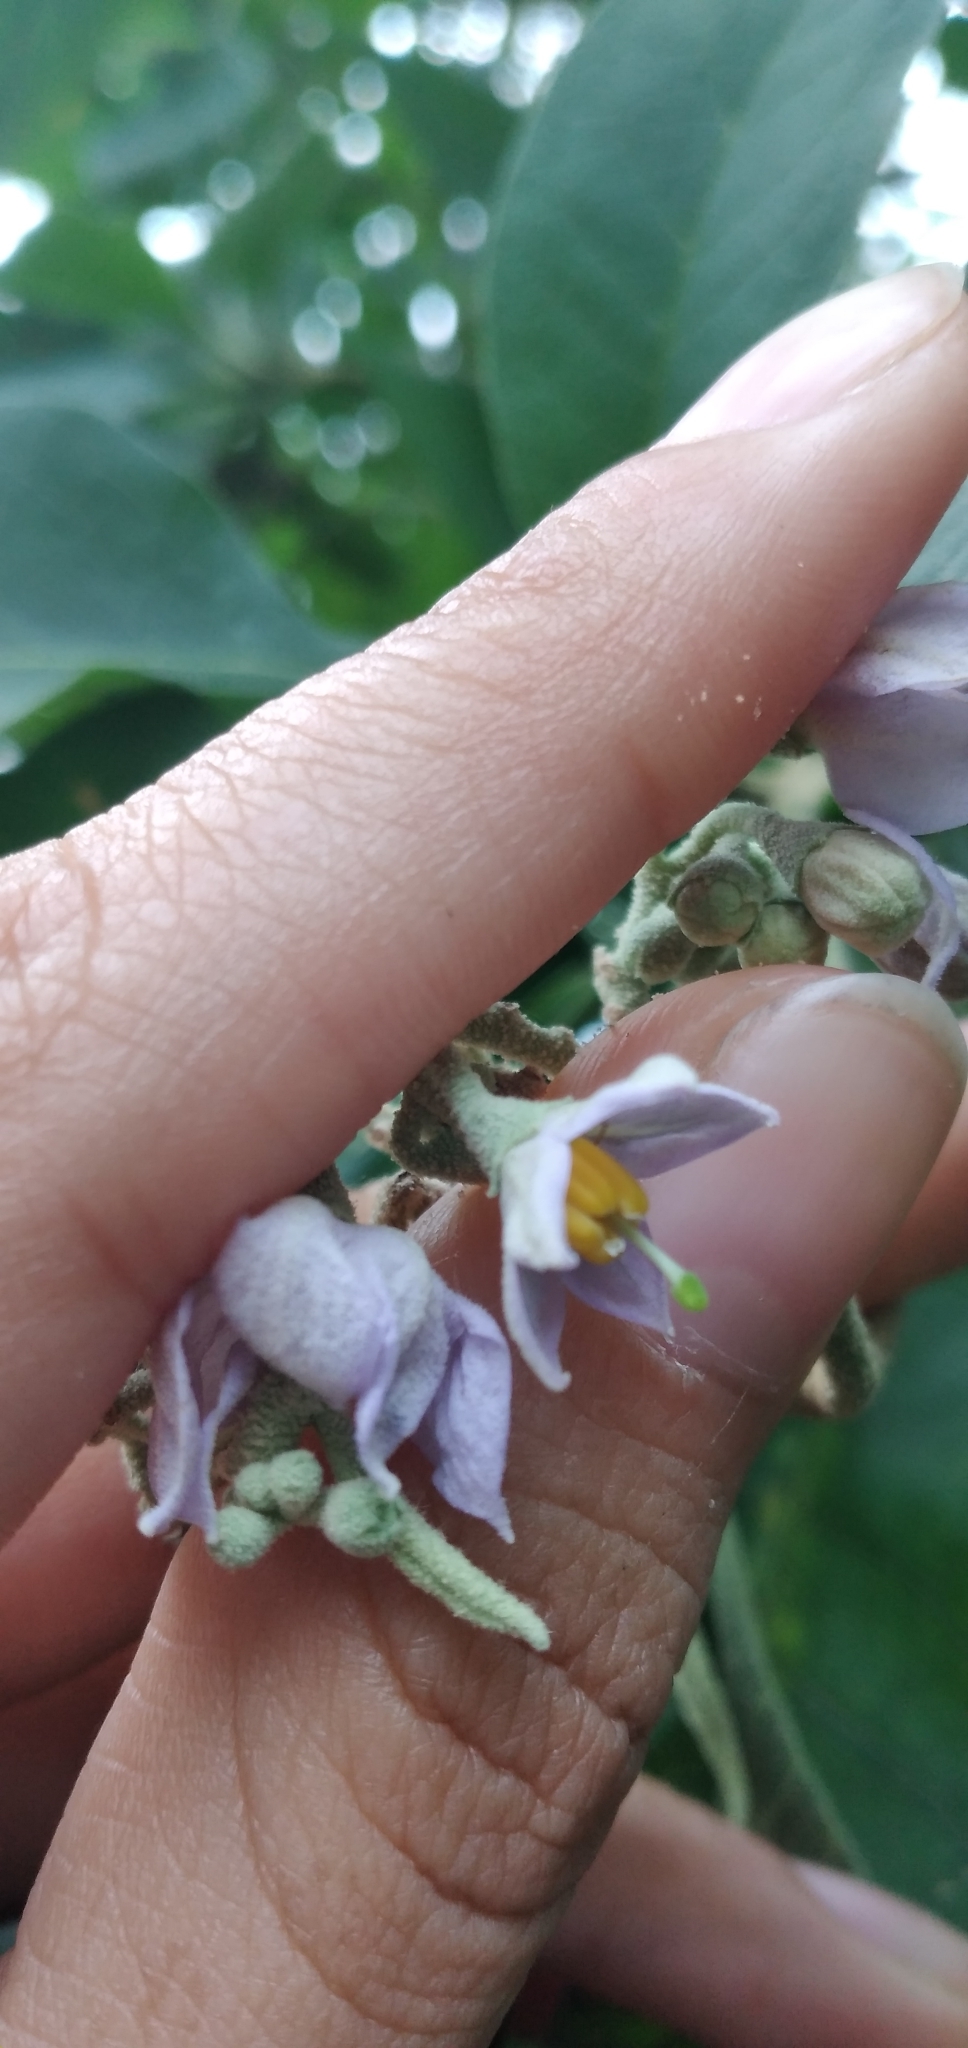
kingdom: Plantae
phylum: Tracheophyta
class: Magnoliopsida
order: Solanales
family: Solanaceae
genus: Solanum
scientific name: Solanum riparium
